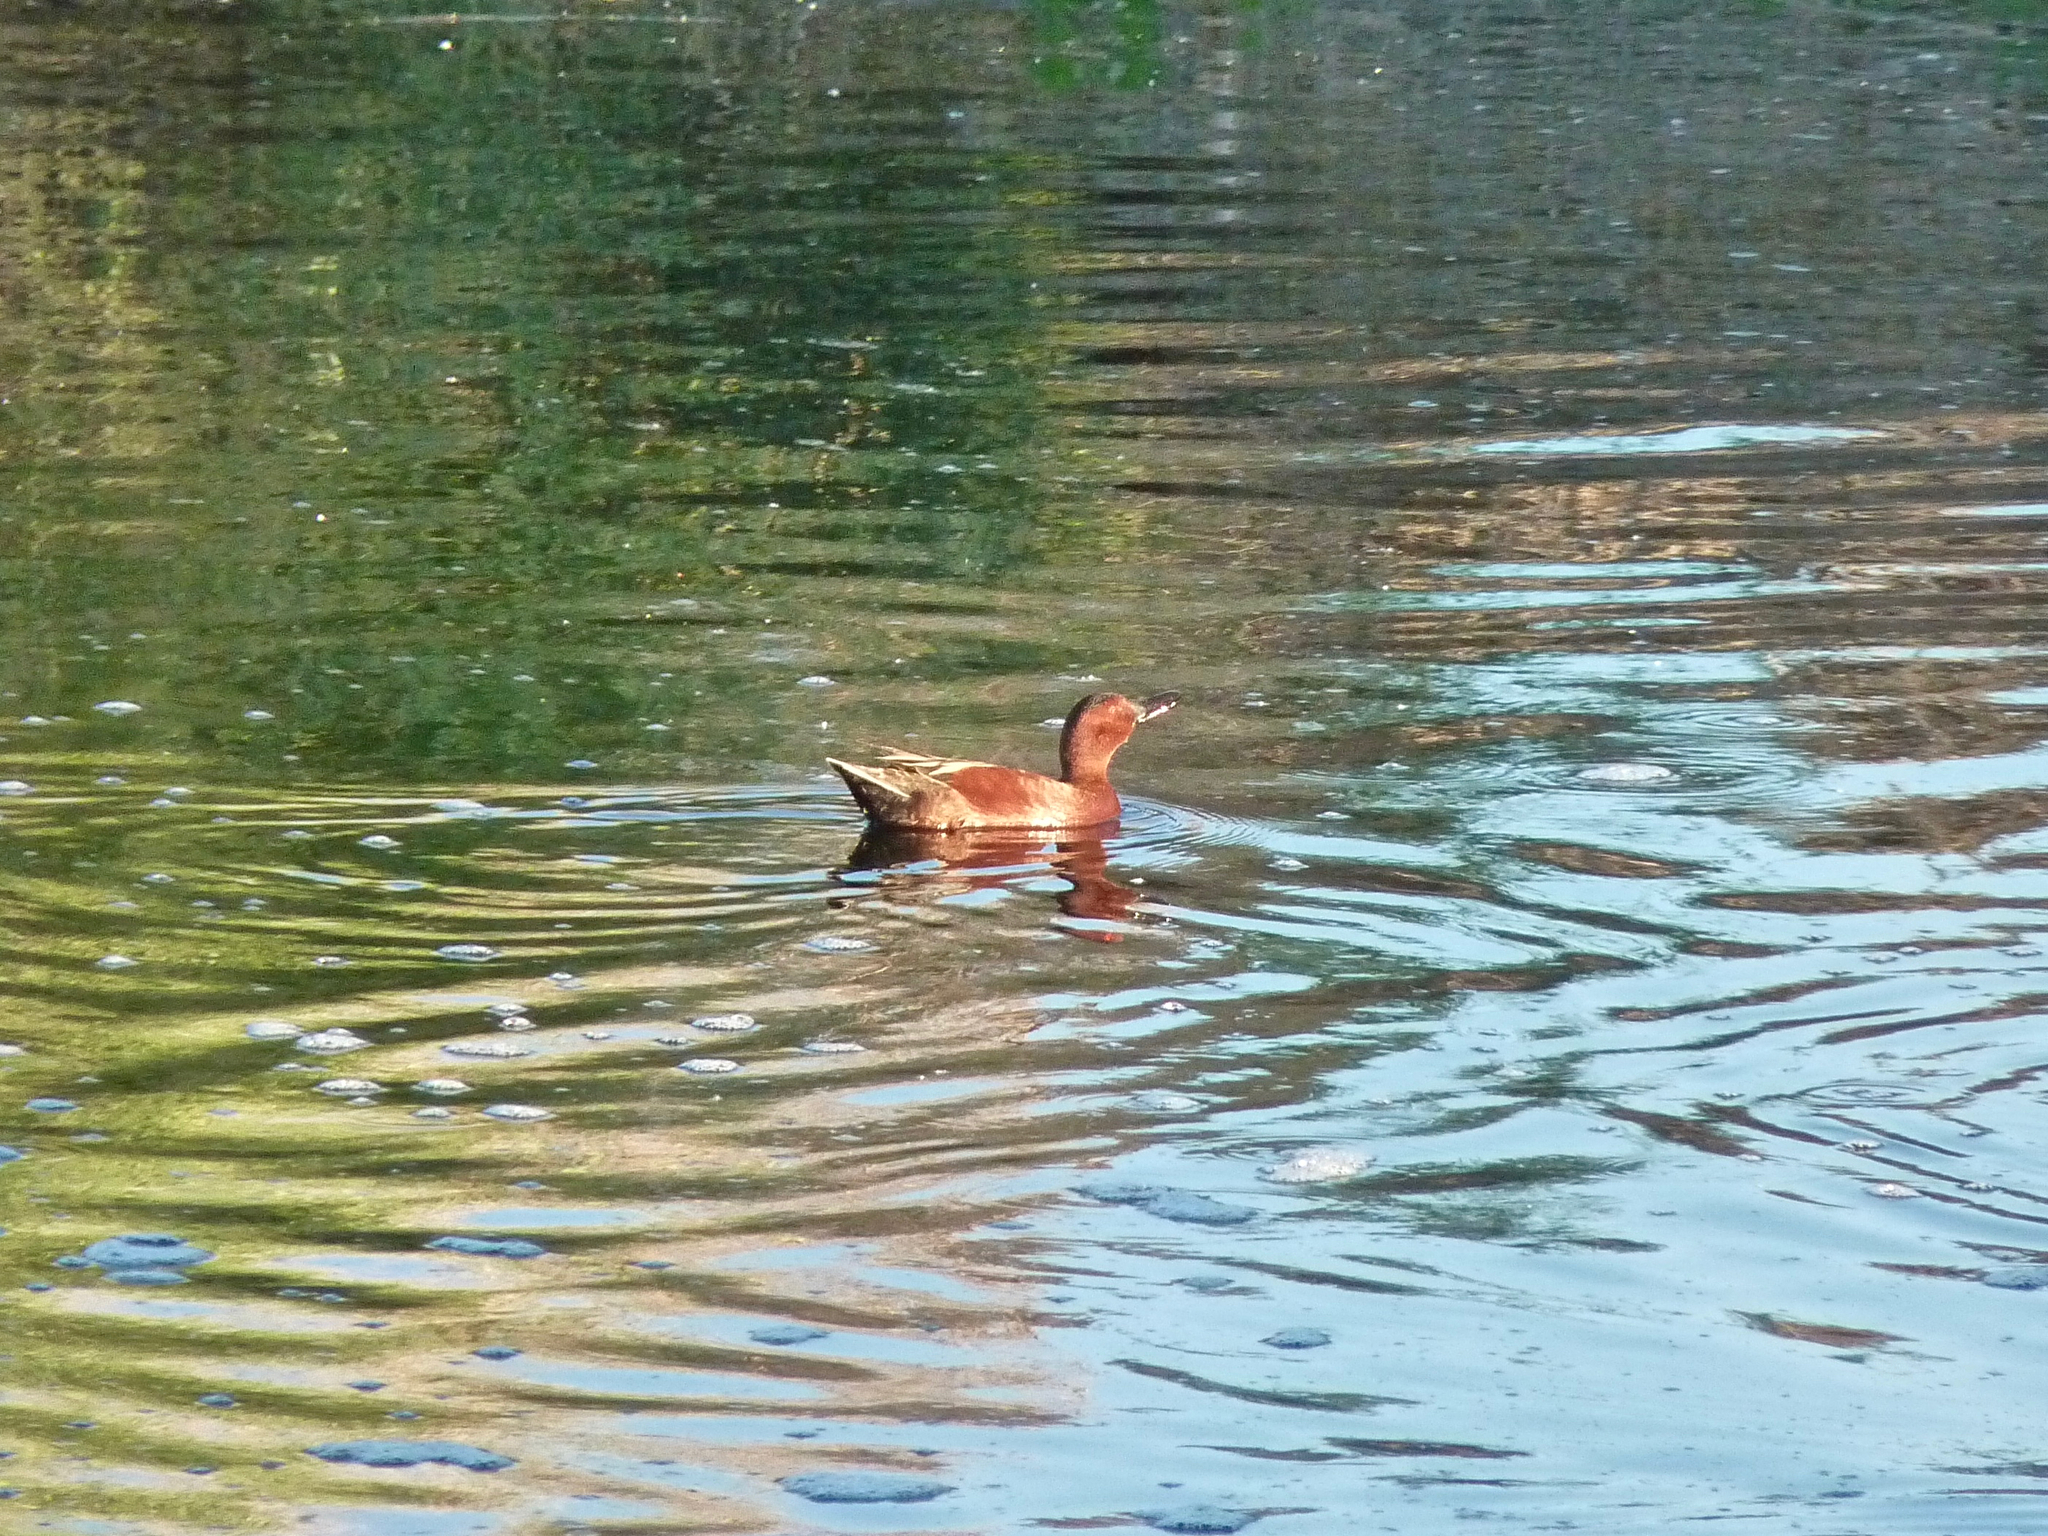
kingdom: Animalia
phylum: Chordata
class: Aves
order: Anseriformes
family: Anatidae
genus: Spatula
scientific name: Spatula cyanoptera
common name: Cinnamon teal
